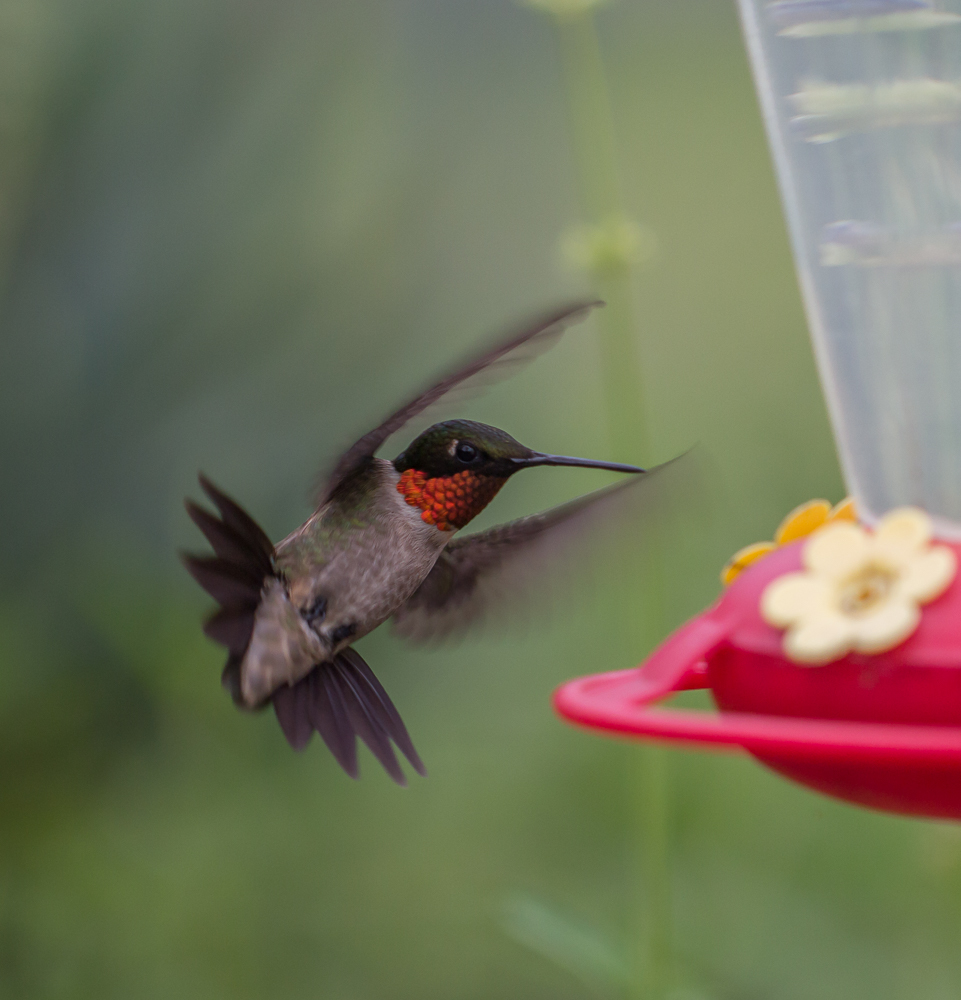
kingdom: Animalia
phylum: Chordata
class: Aves
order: Apodiformes
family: Trochilidae
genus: Archilochus
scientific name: Archilochus colubris
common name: Ruby-throated hummingbird
